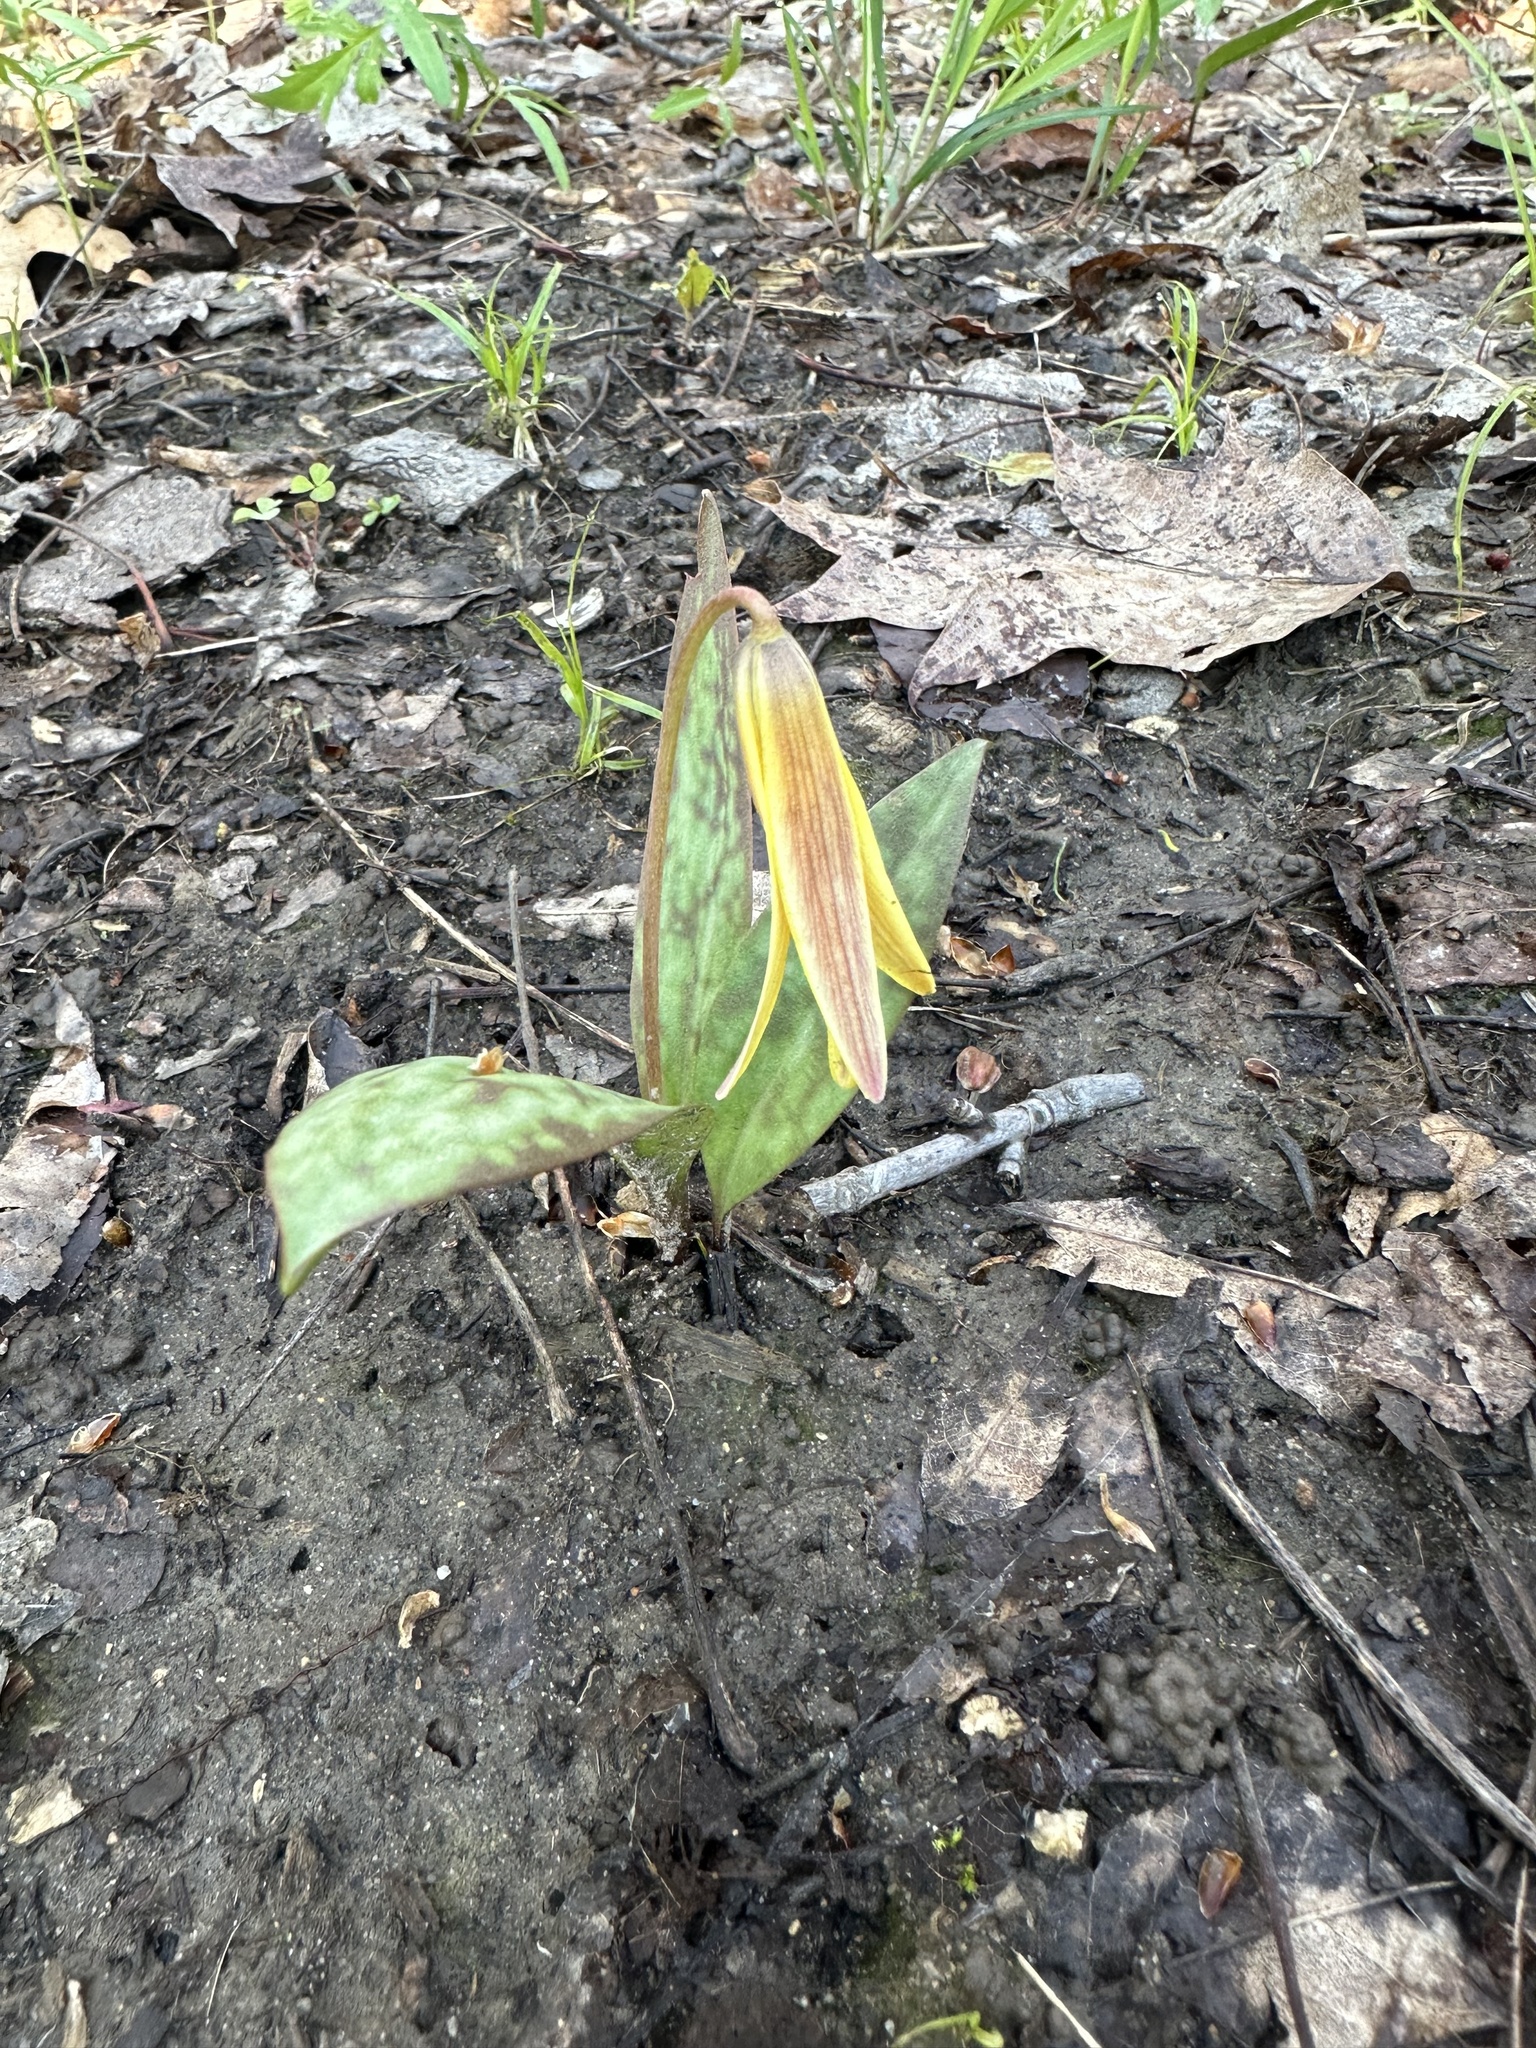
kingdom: Plantae
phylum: Tracheophyta
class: Liliopsida
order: Liliales
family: Liliaceae
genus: Erythronium
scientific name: Erythronium americanum
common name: Yellow adder's-tongue
